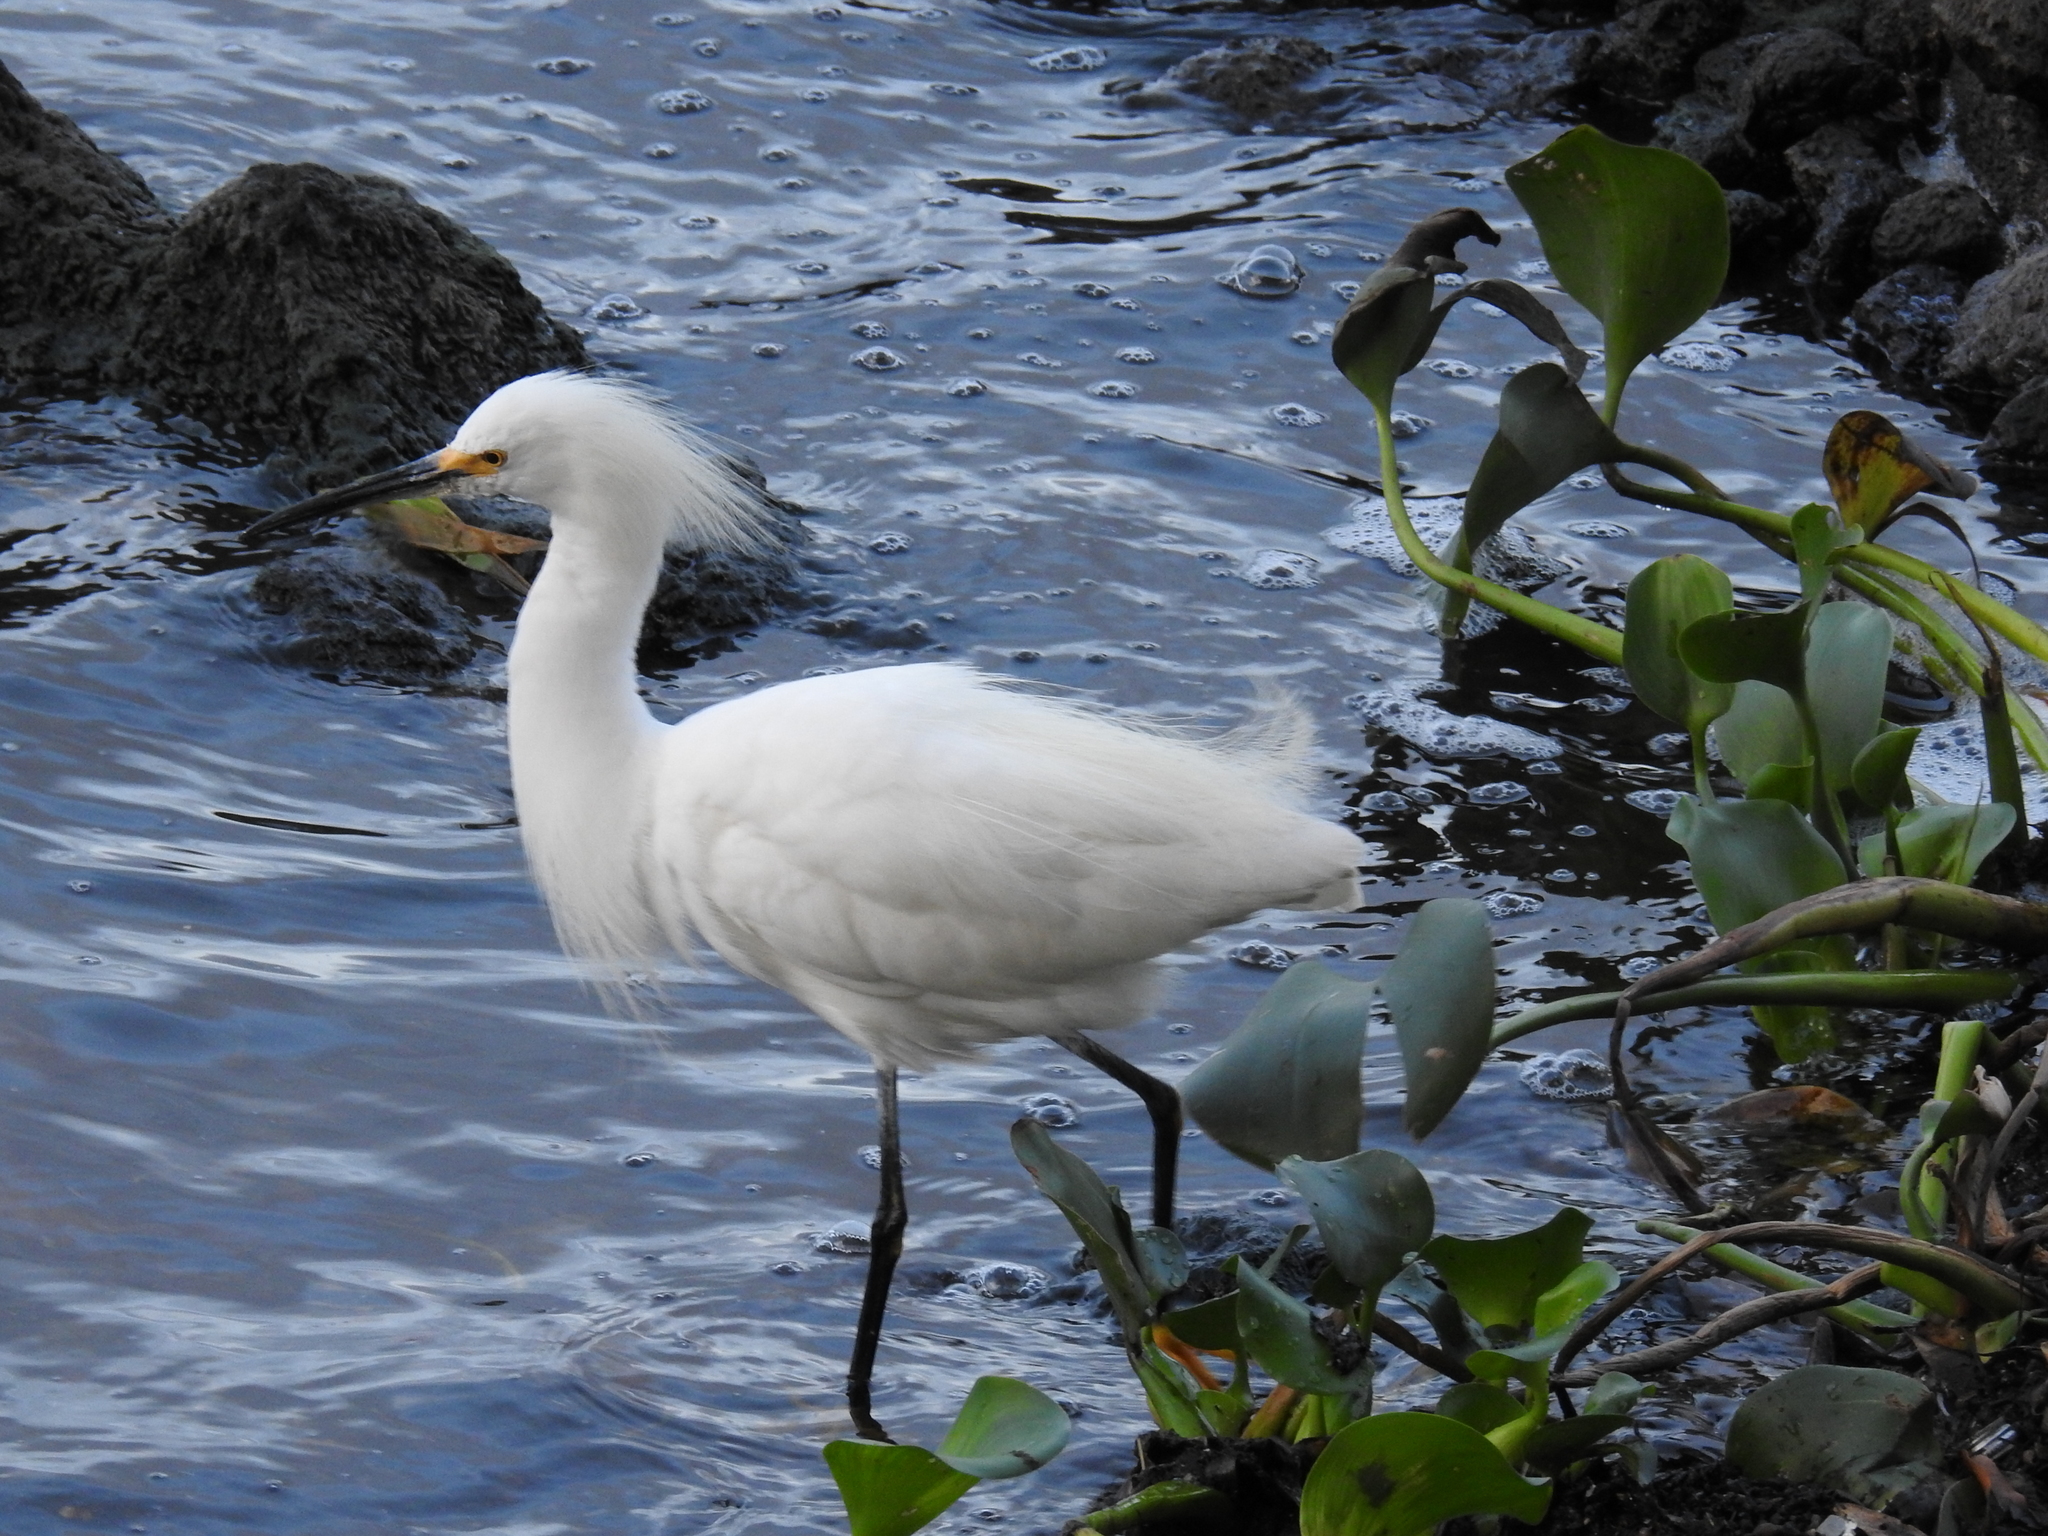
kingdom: Animalia
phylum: Chordata
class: Aves
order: Pelecaniformes
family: Ardeidae
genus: Egretta
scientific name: Egretta thula
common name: Snowy egret
